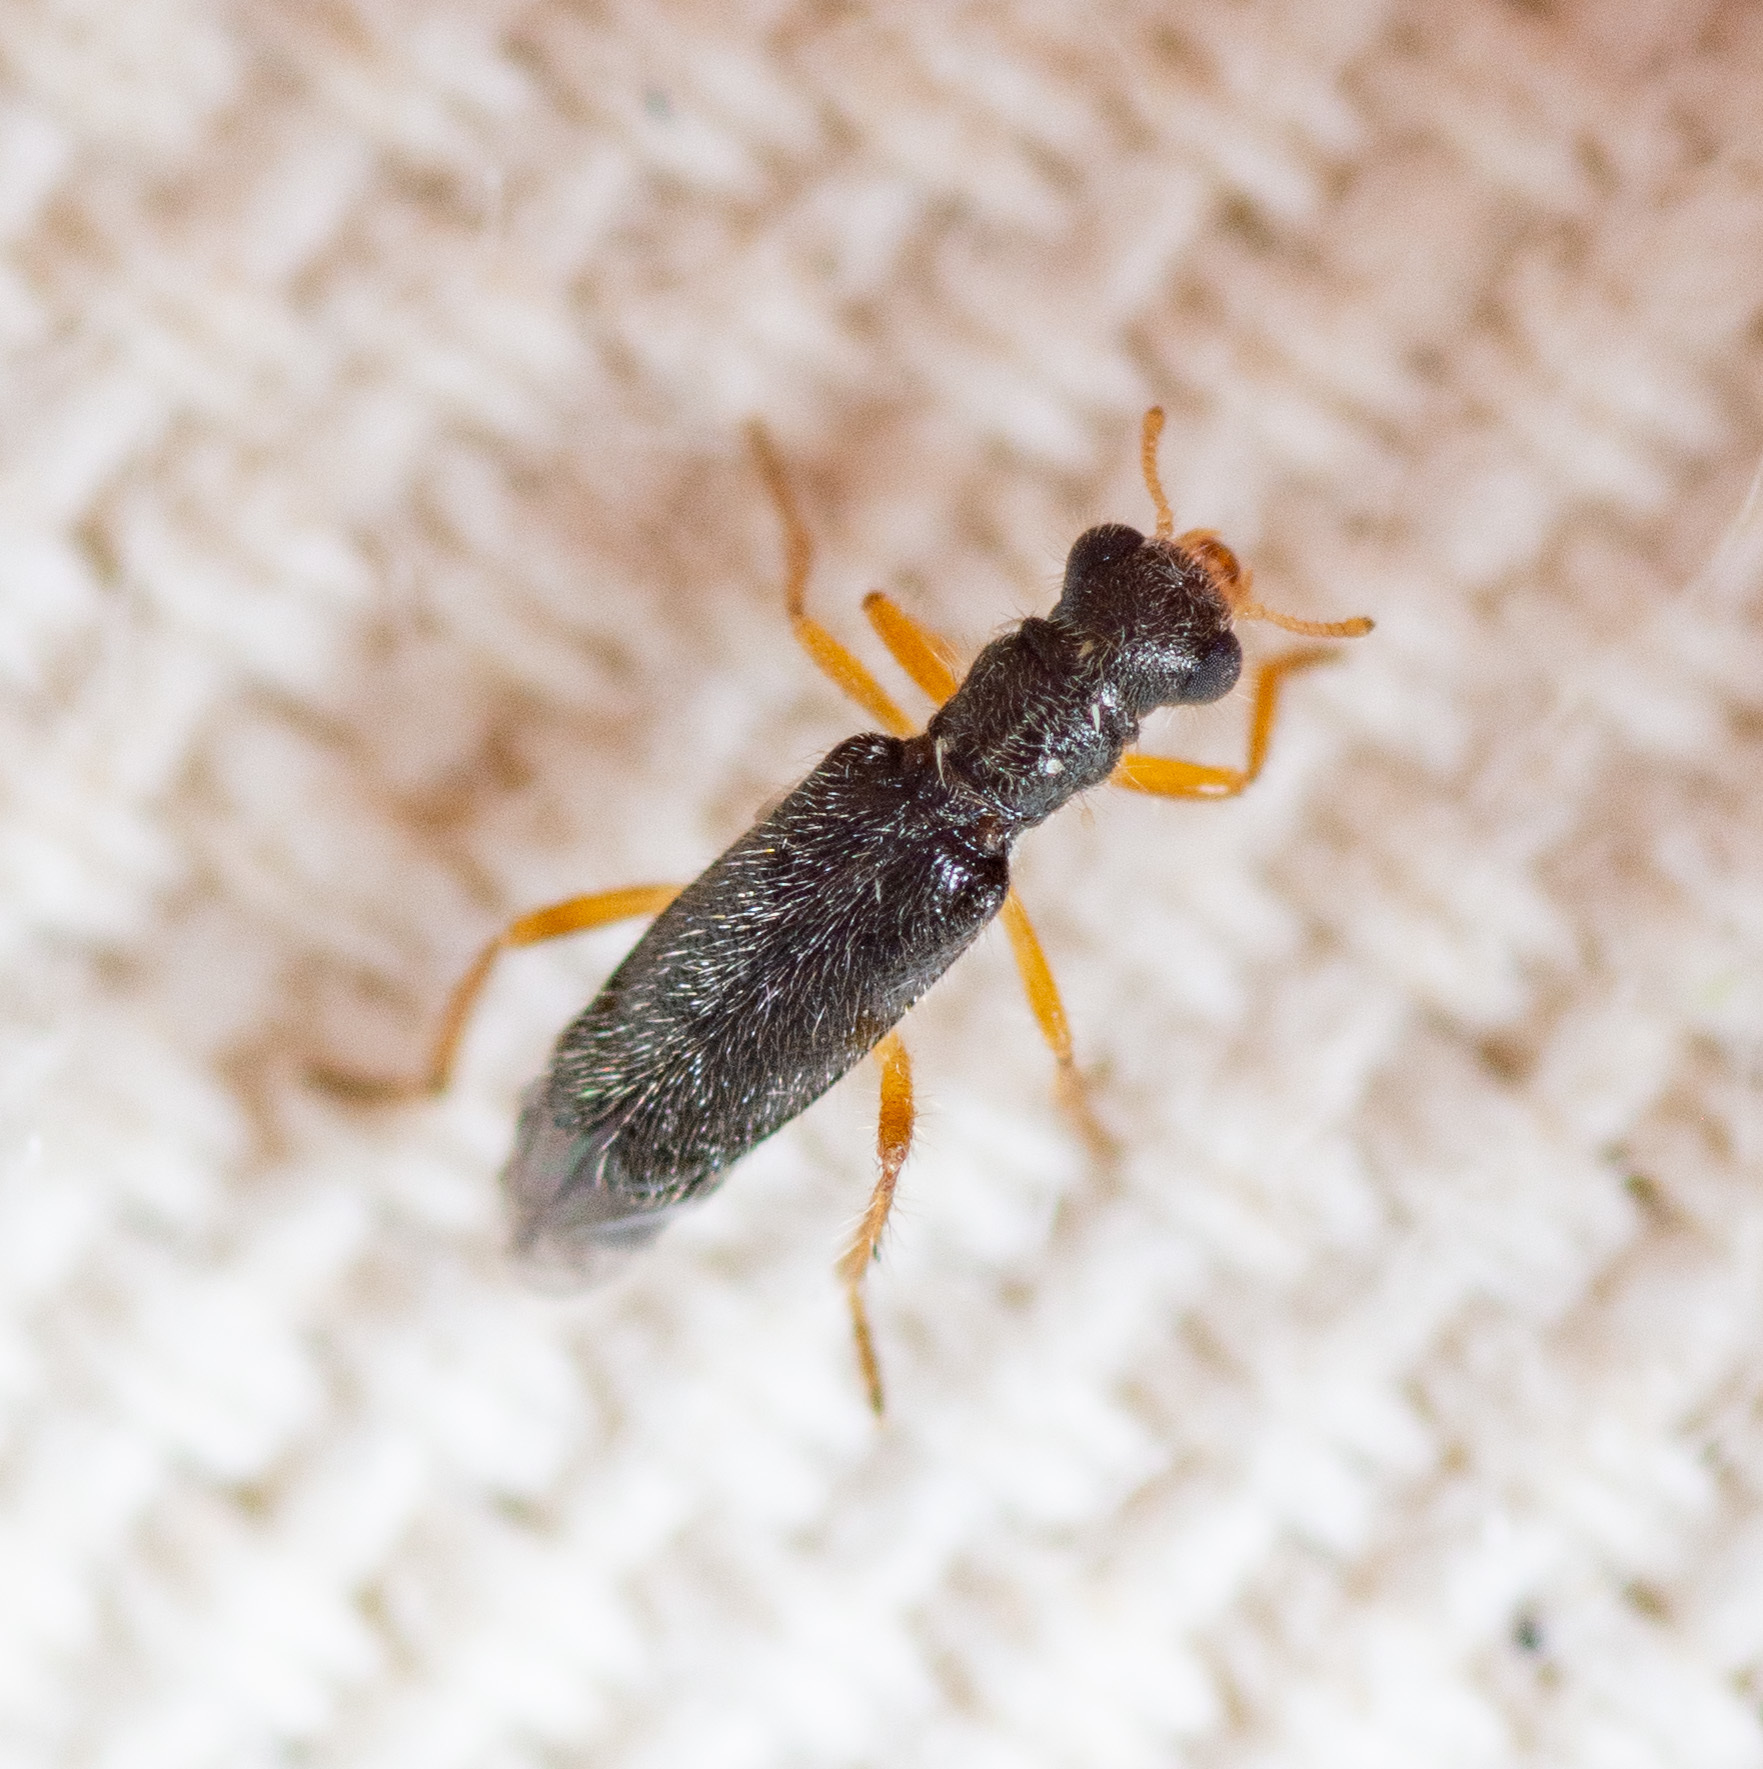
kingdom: Animalia
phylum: Arthropoda
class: Insecta
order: Coleoptera
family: Cleridae
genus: Wolcottia
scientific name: Wolcottia pedalis
